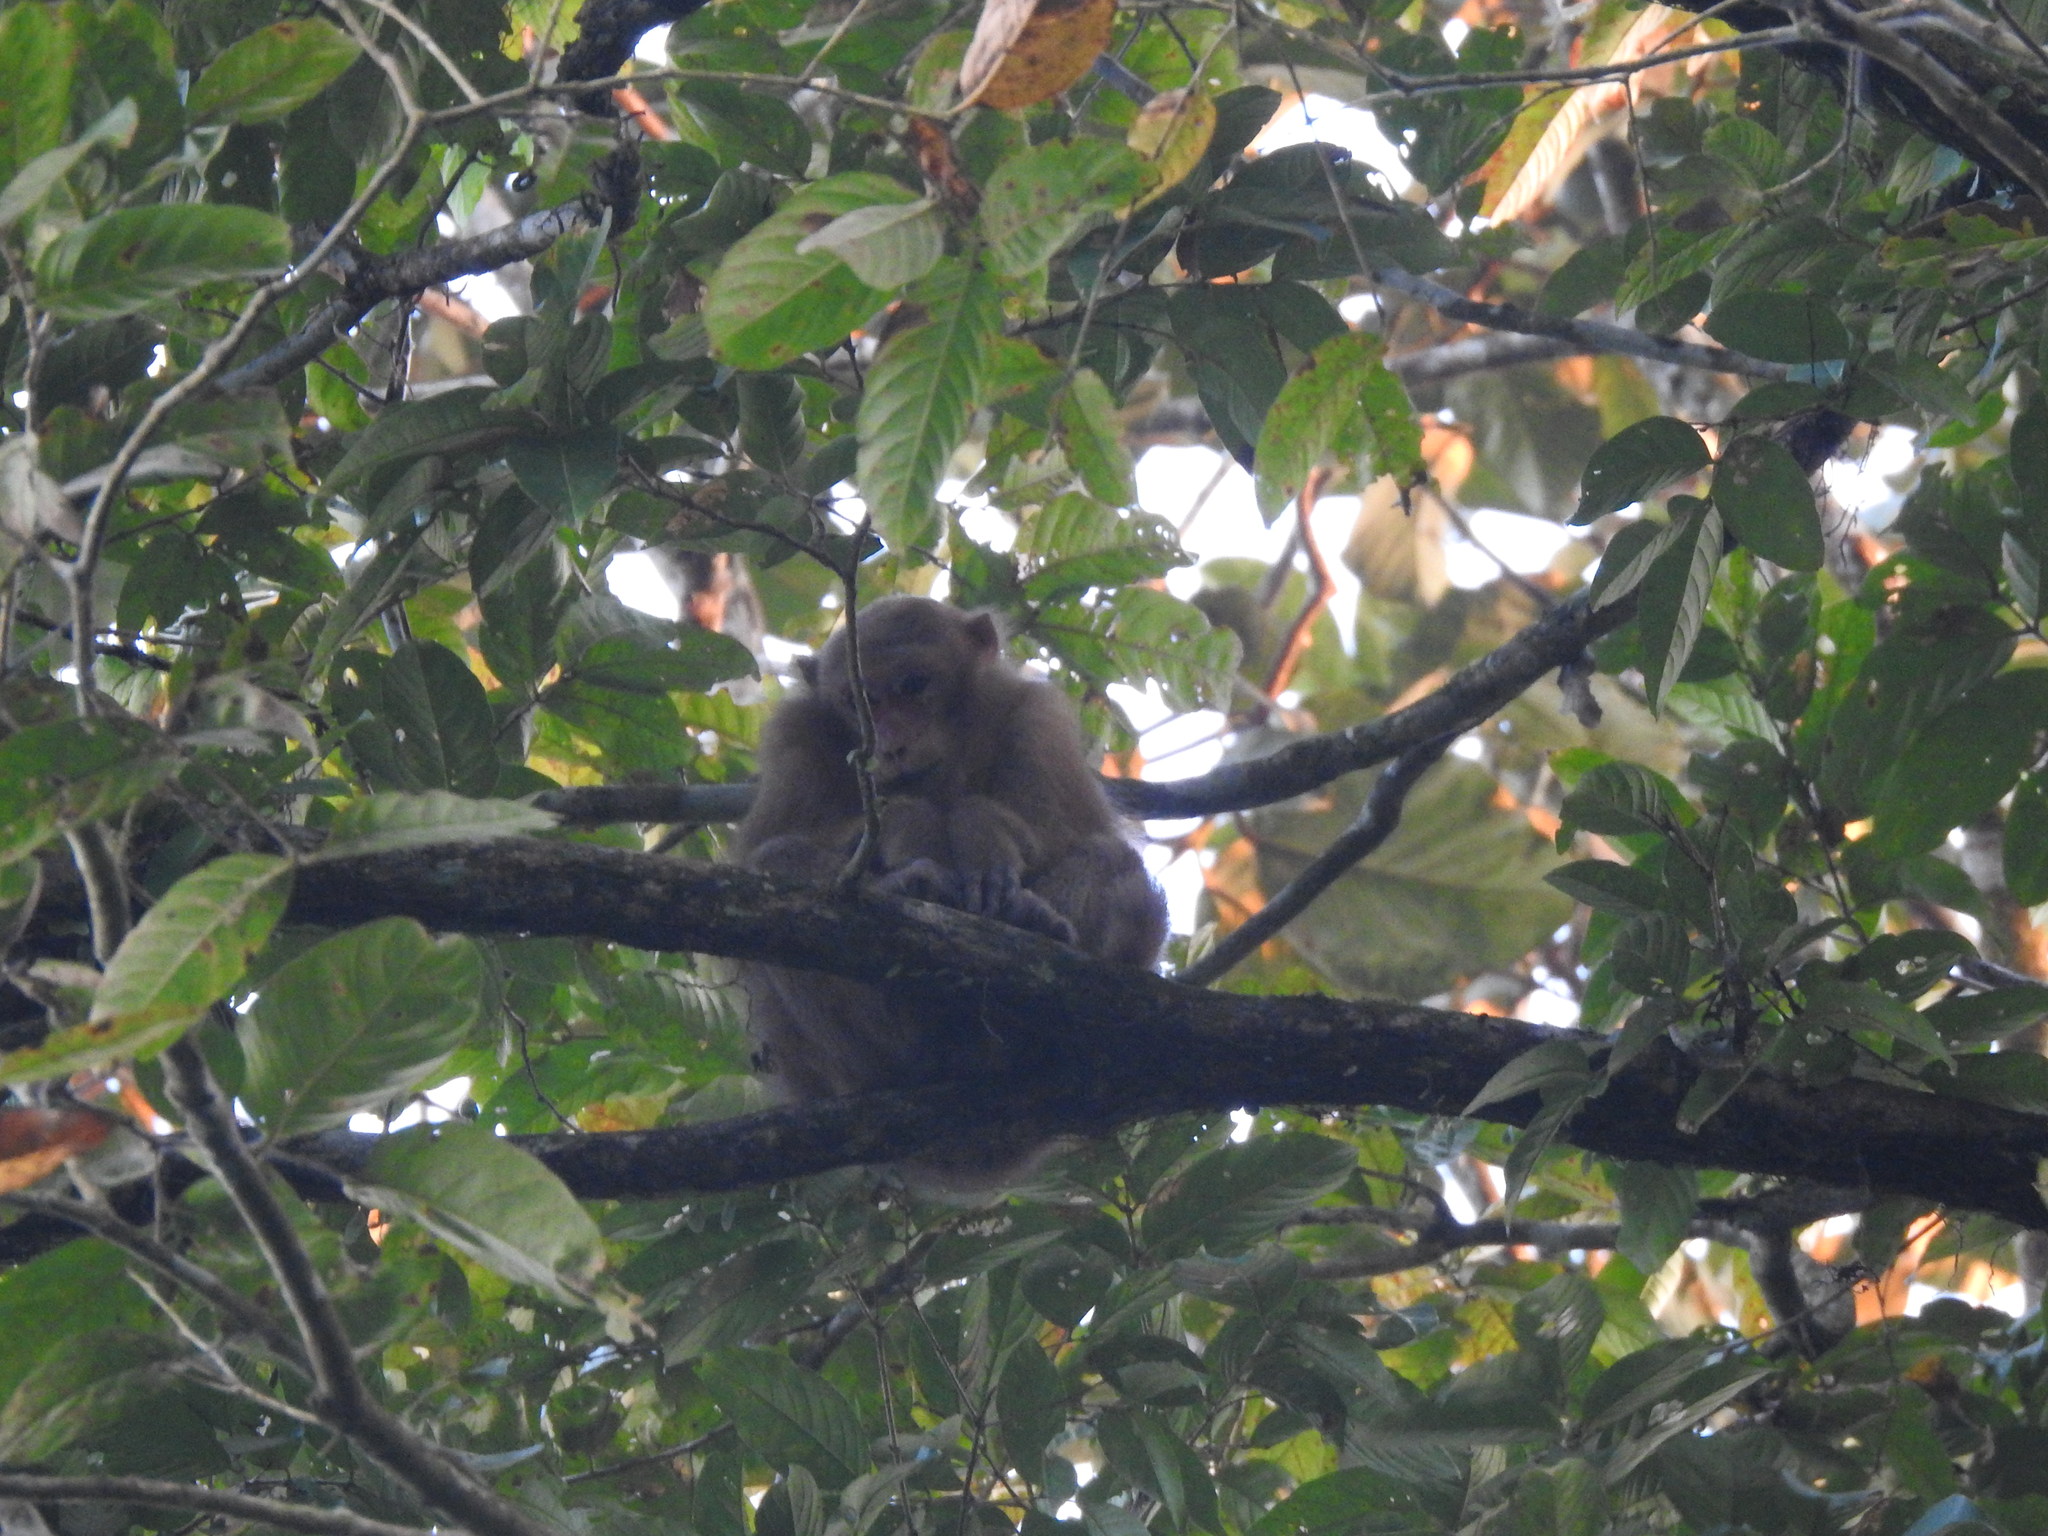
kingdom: Animalia
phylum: Chordata
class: Mammalia
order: Primates
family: Cercopithecidae
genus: Macaca
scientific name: Macaca assamensis
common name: Assam macaque
